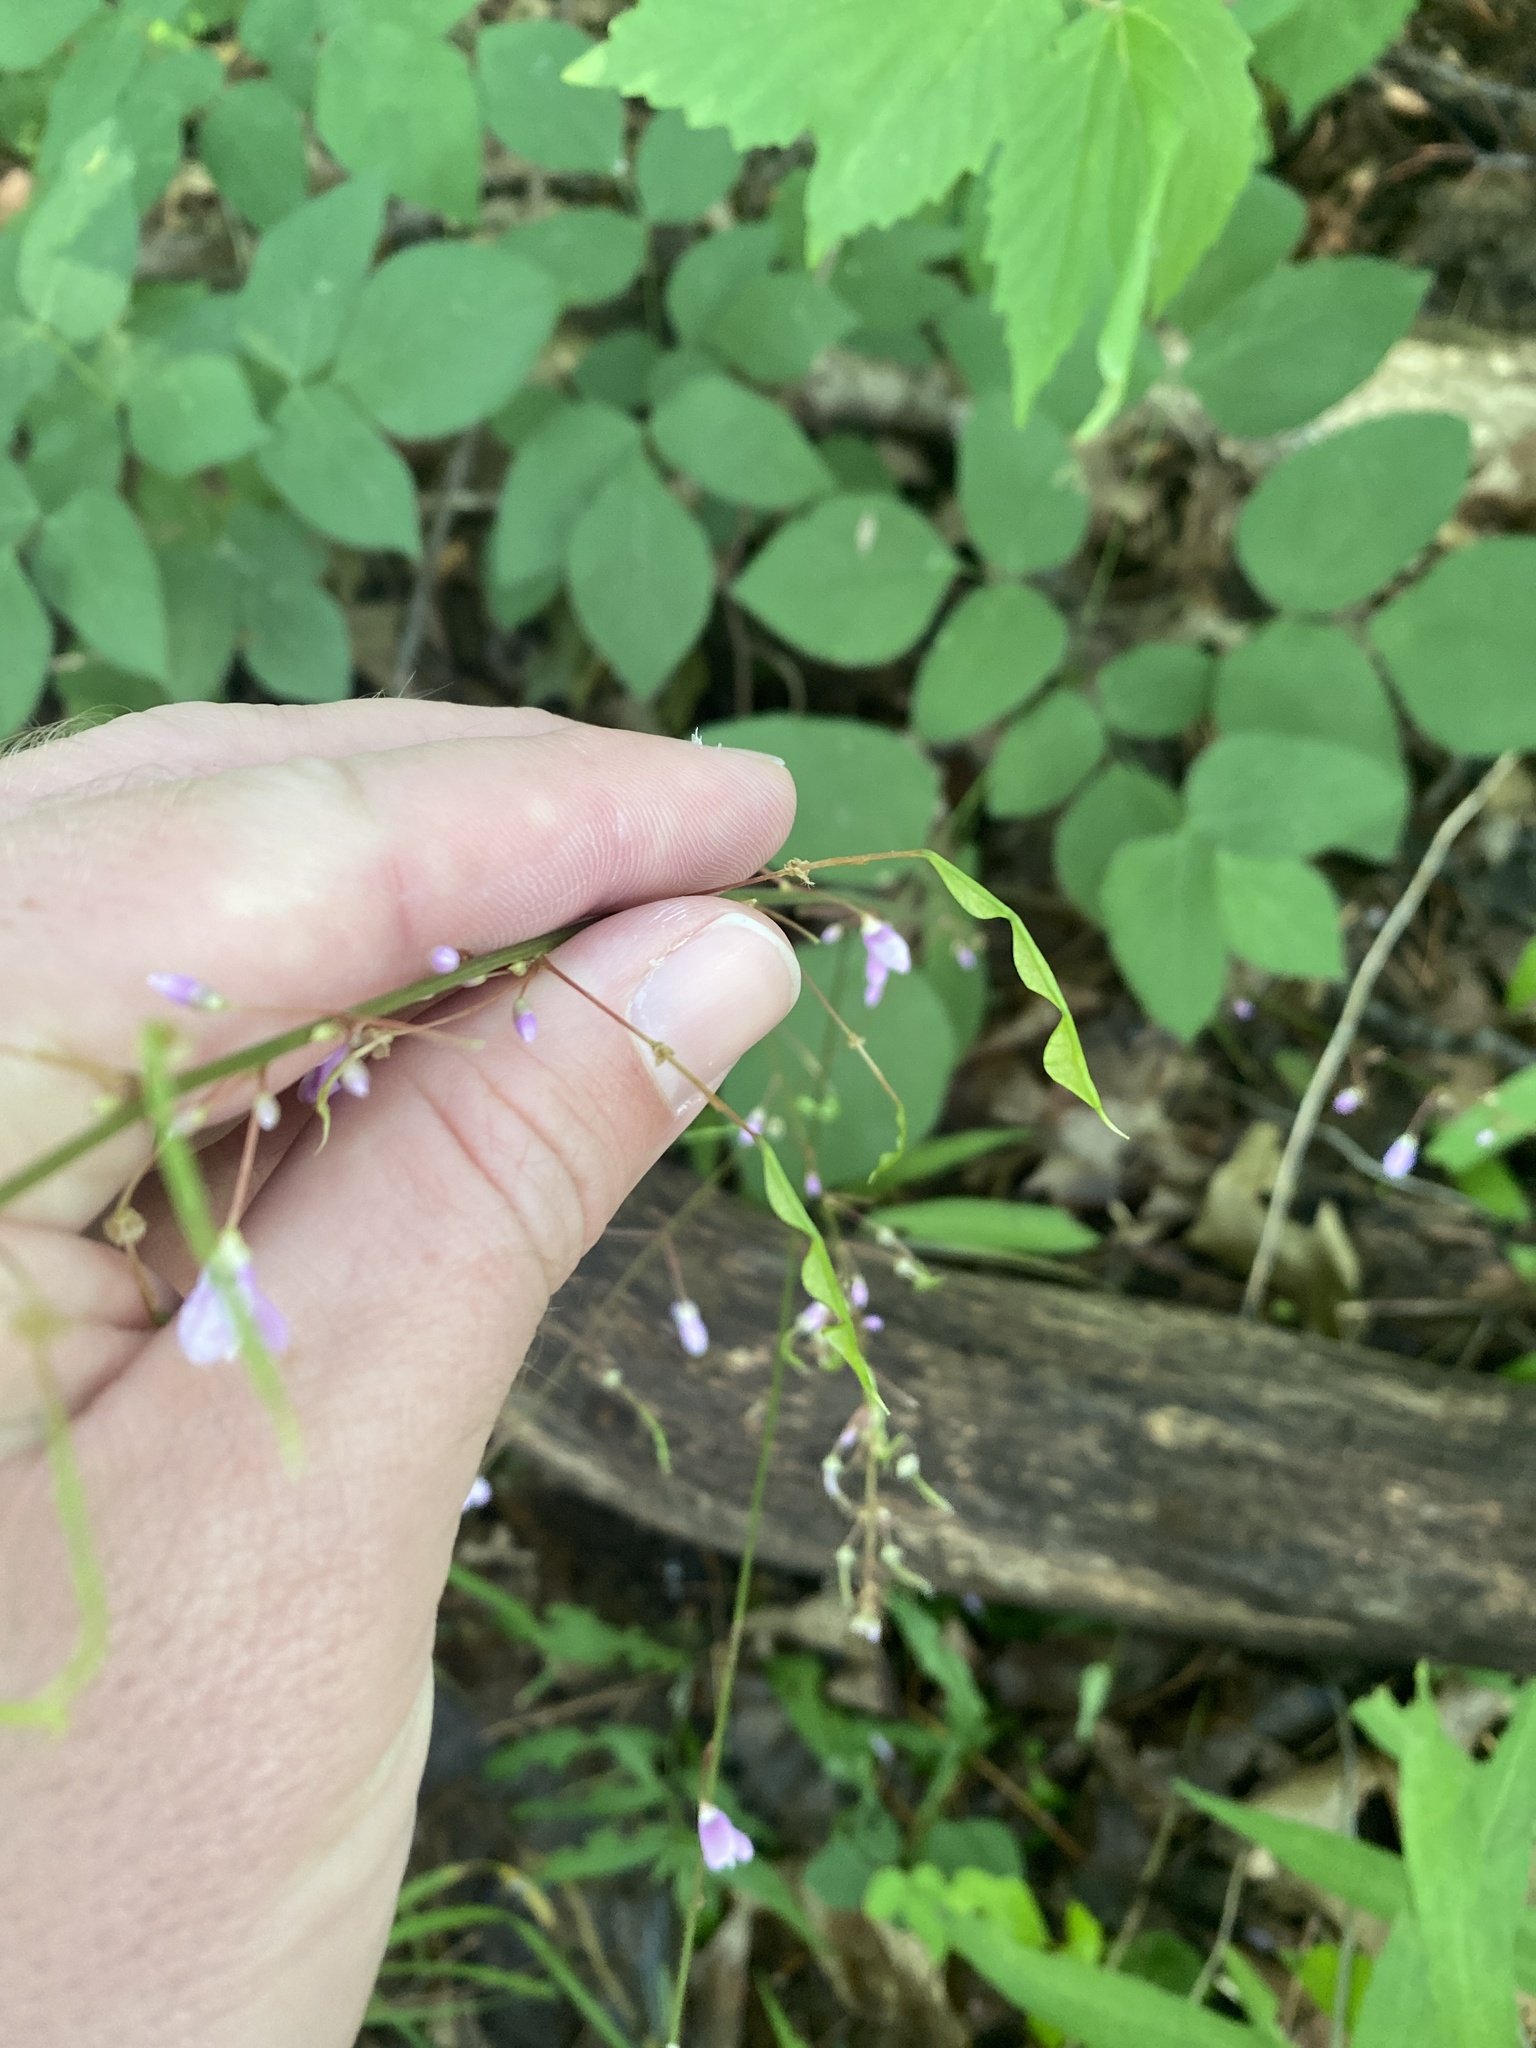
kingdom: Plantae
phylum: Tracheophyta
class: Magnoliopsida
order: Fabales
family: Fabaceae
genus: Hylodesmum
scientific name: Hylodesmum nudiflorum
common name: Bare-stemmed tick-trefoil
